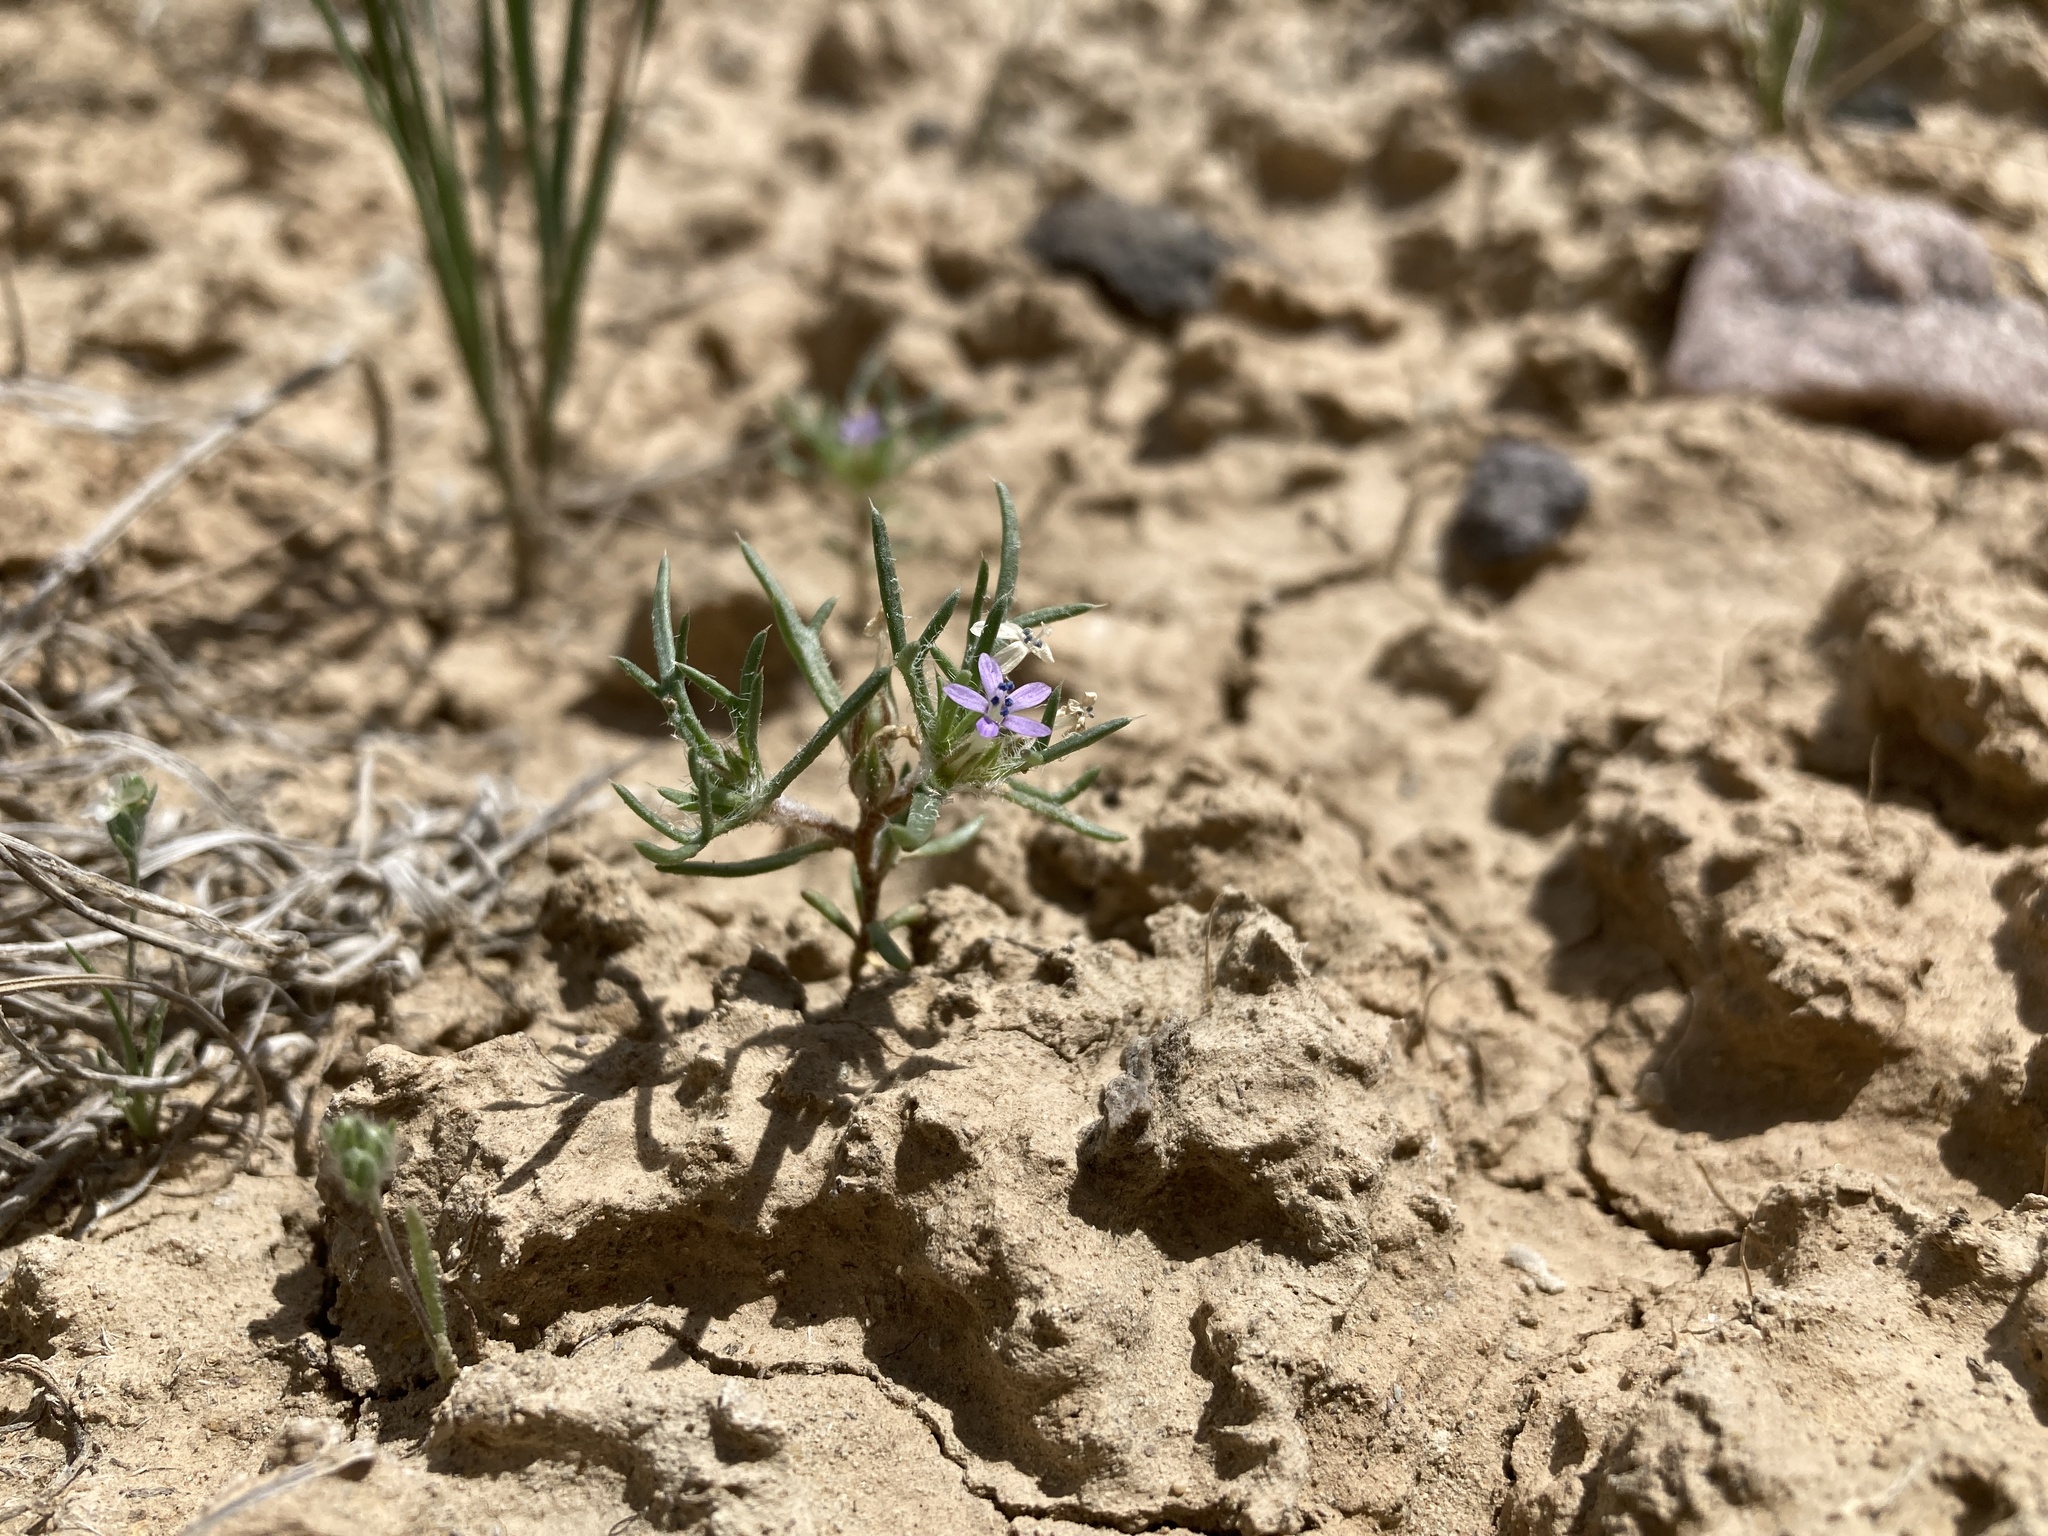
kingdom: Plantae
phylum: Tracheophyta
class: Magnoliopsida
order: Ericales
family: Polemoniaceae
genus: Ipomopsis
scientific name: Ipomopsis pumila
